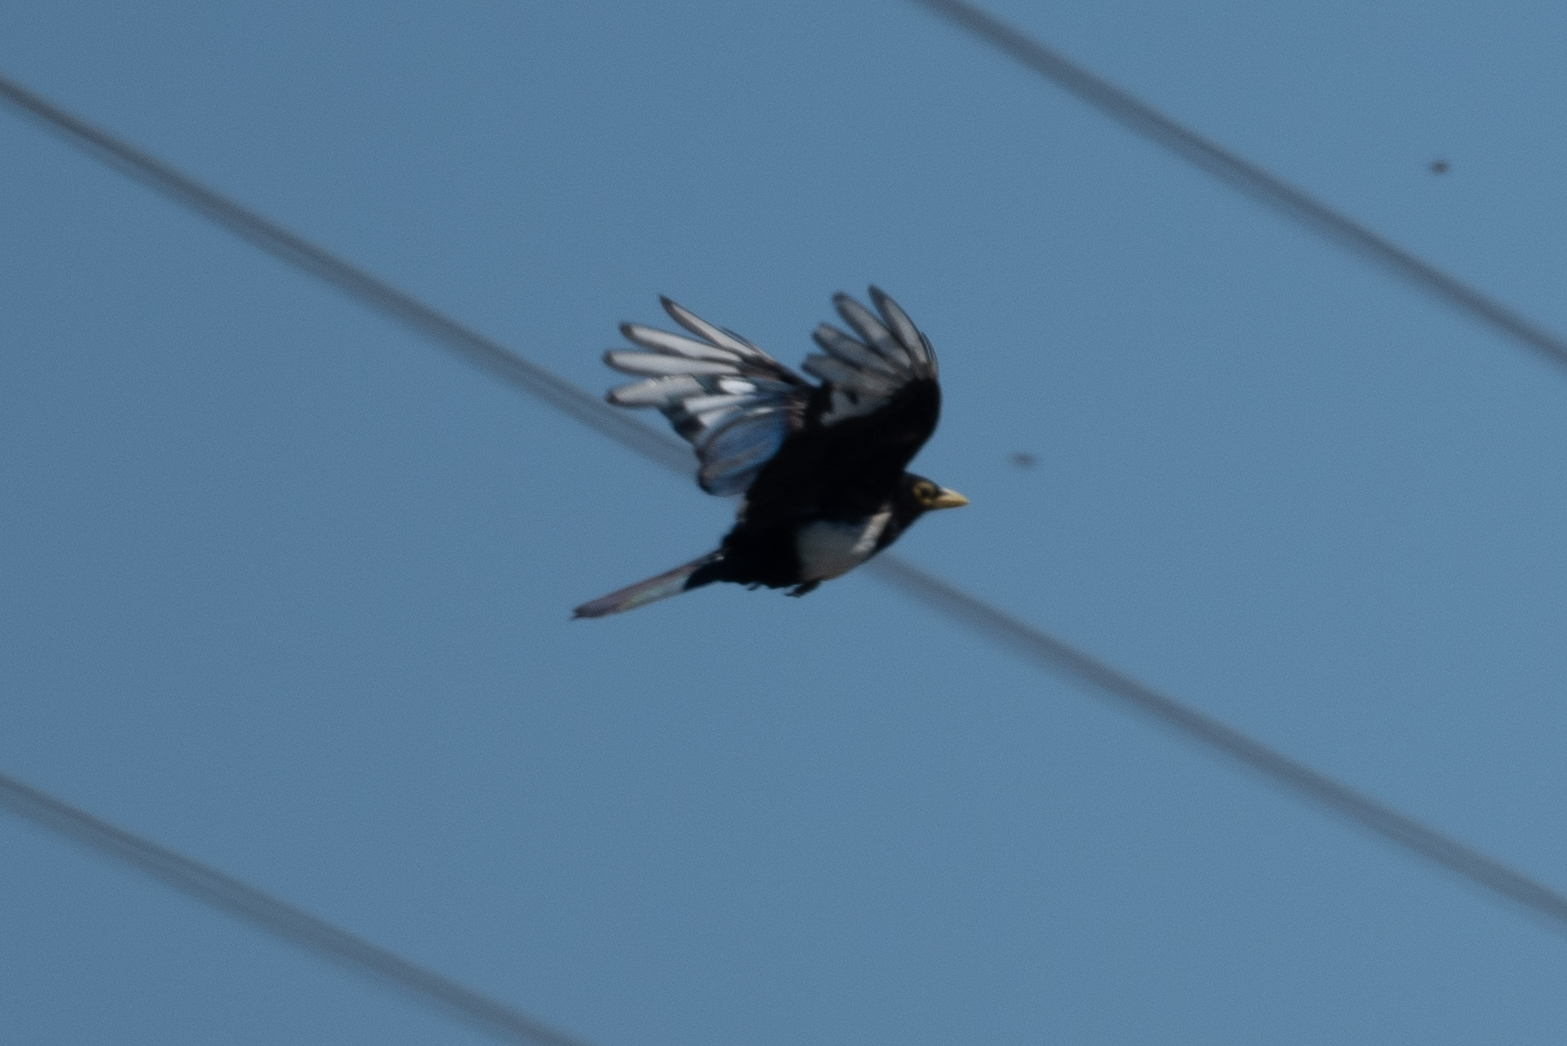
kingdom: Animalia
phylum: Chordata
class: Aves
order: Passeriformes
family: Corvidae
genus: Pica
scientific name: Pica nuttalli
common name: Yellow-billed magpie
